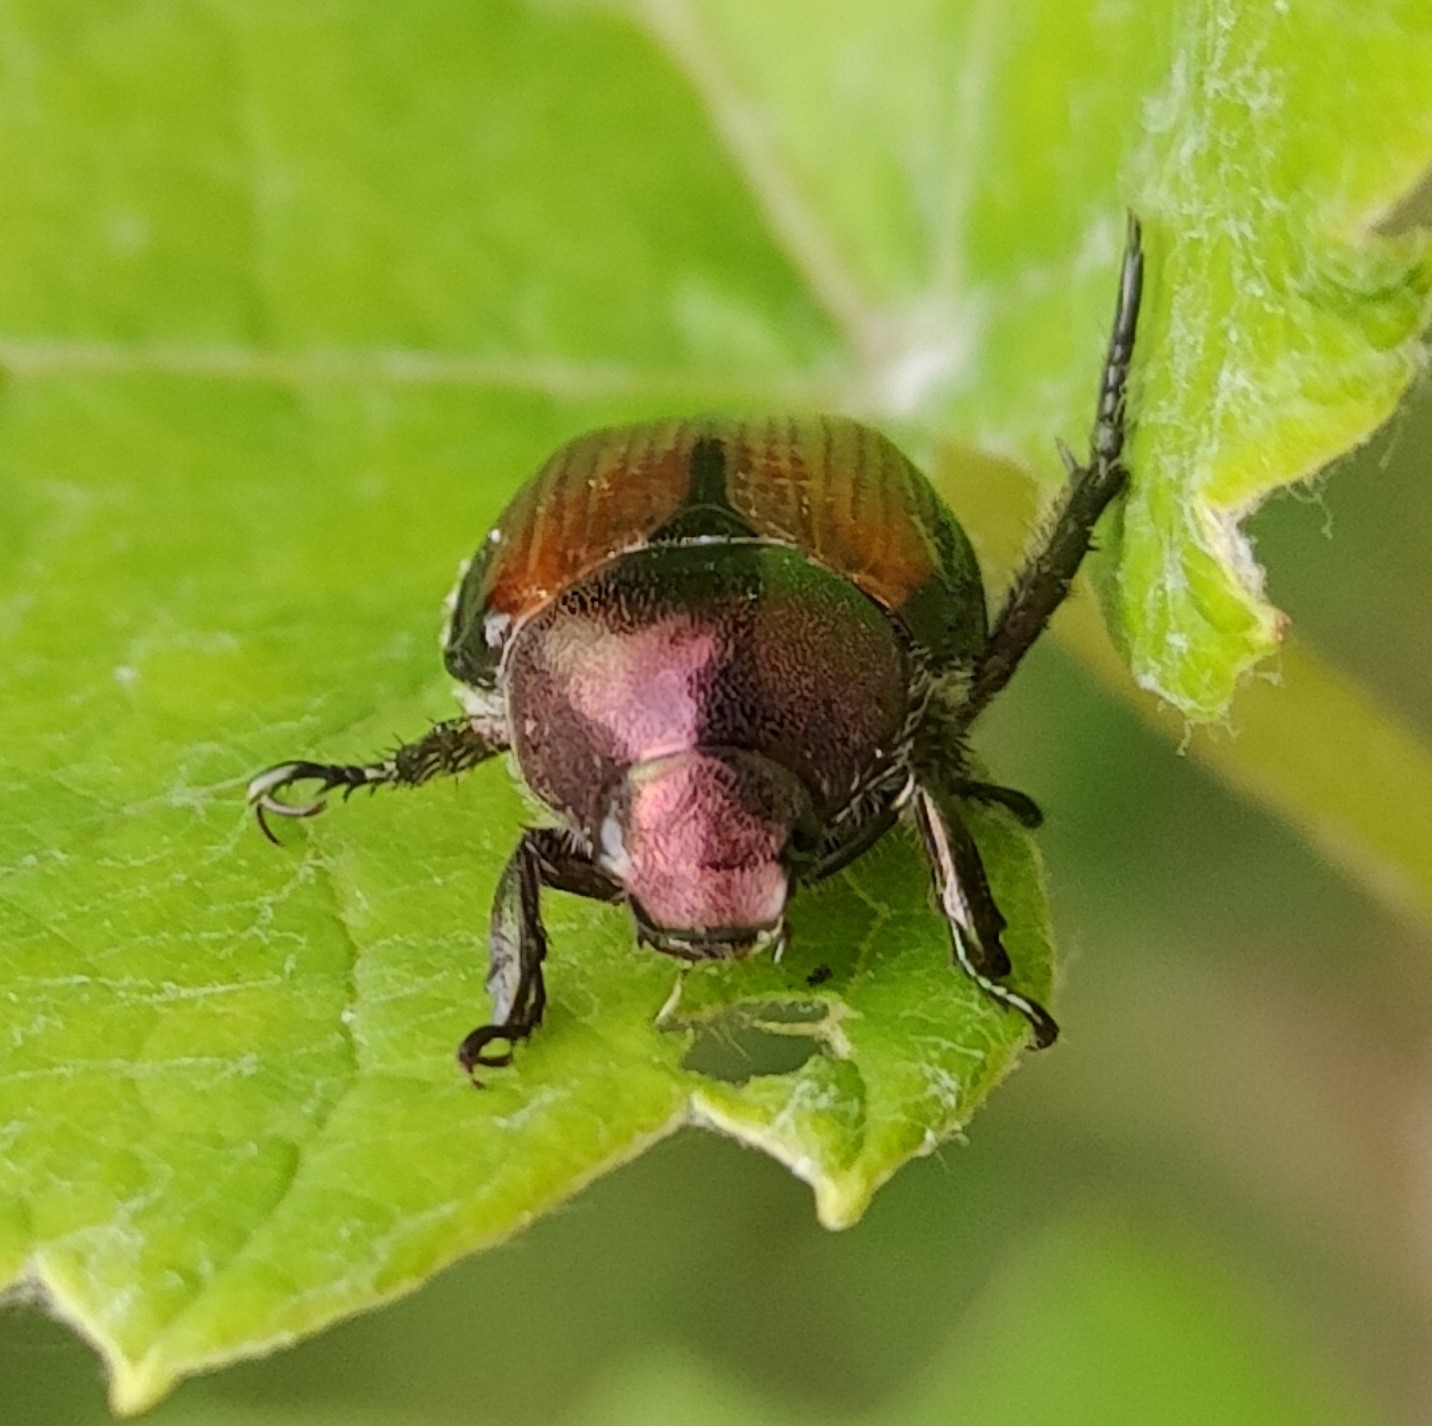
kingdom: Animalia
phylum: Arthropoda
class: Insecta
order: Coleoptera
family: Scarabaeidae
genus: Popillia
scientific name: Popillia japonica
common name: Japanese beetle
